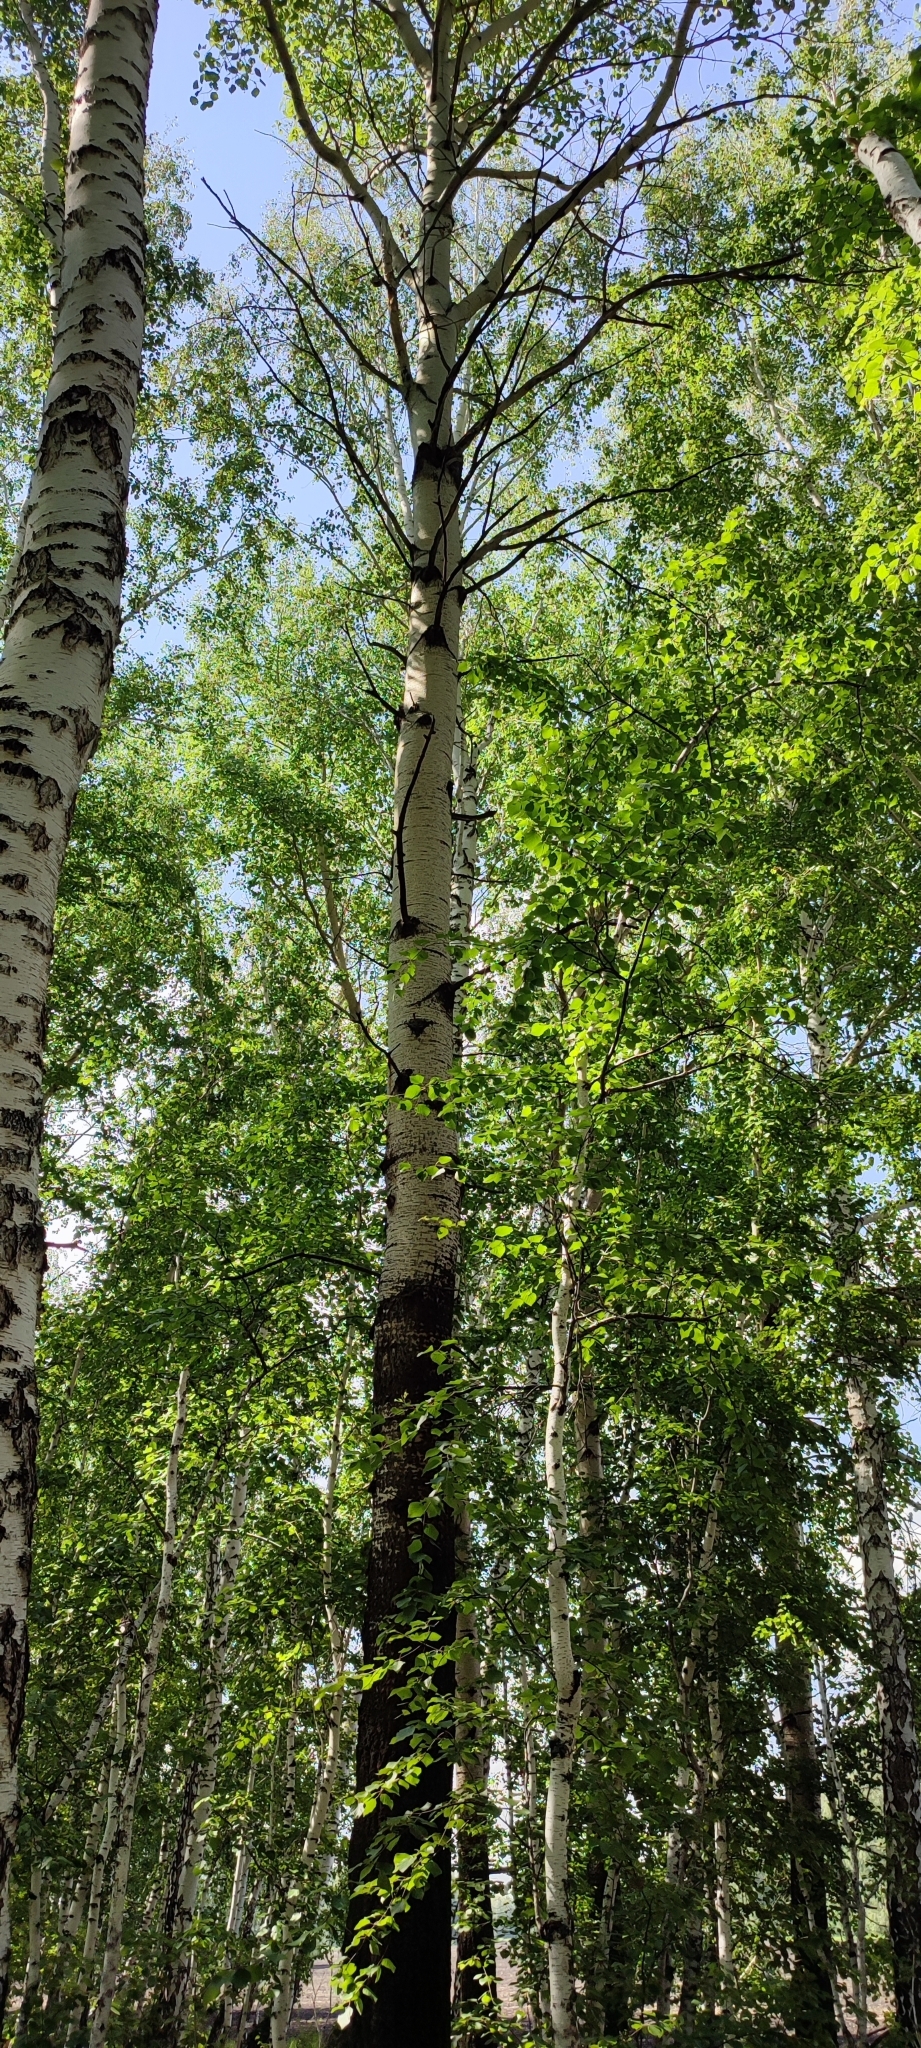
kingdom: Plantae
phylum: Tracheophyta
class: Magnoliopsida
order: Malpighiales
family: Salicaceae
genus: Populus
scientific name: Populus tremula
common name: European aspen
